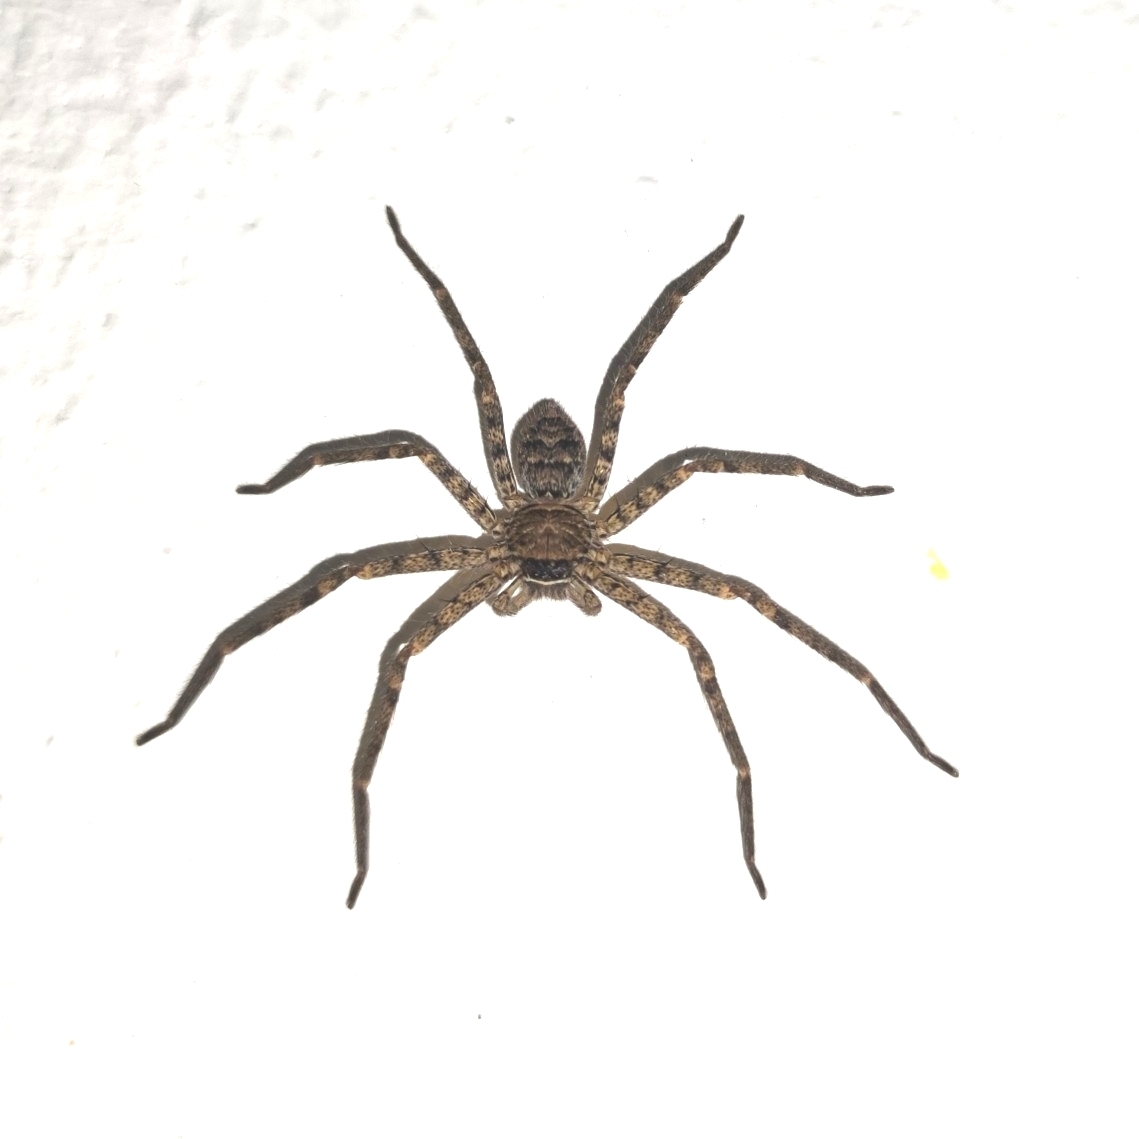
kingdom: Animalia
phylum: Arthropoda
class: Arachnida
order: Araneae
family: Sparassidae
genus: Heteropoda
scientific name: Heteropoda venatoria
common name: Huntsman spider
